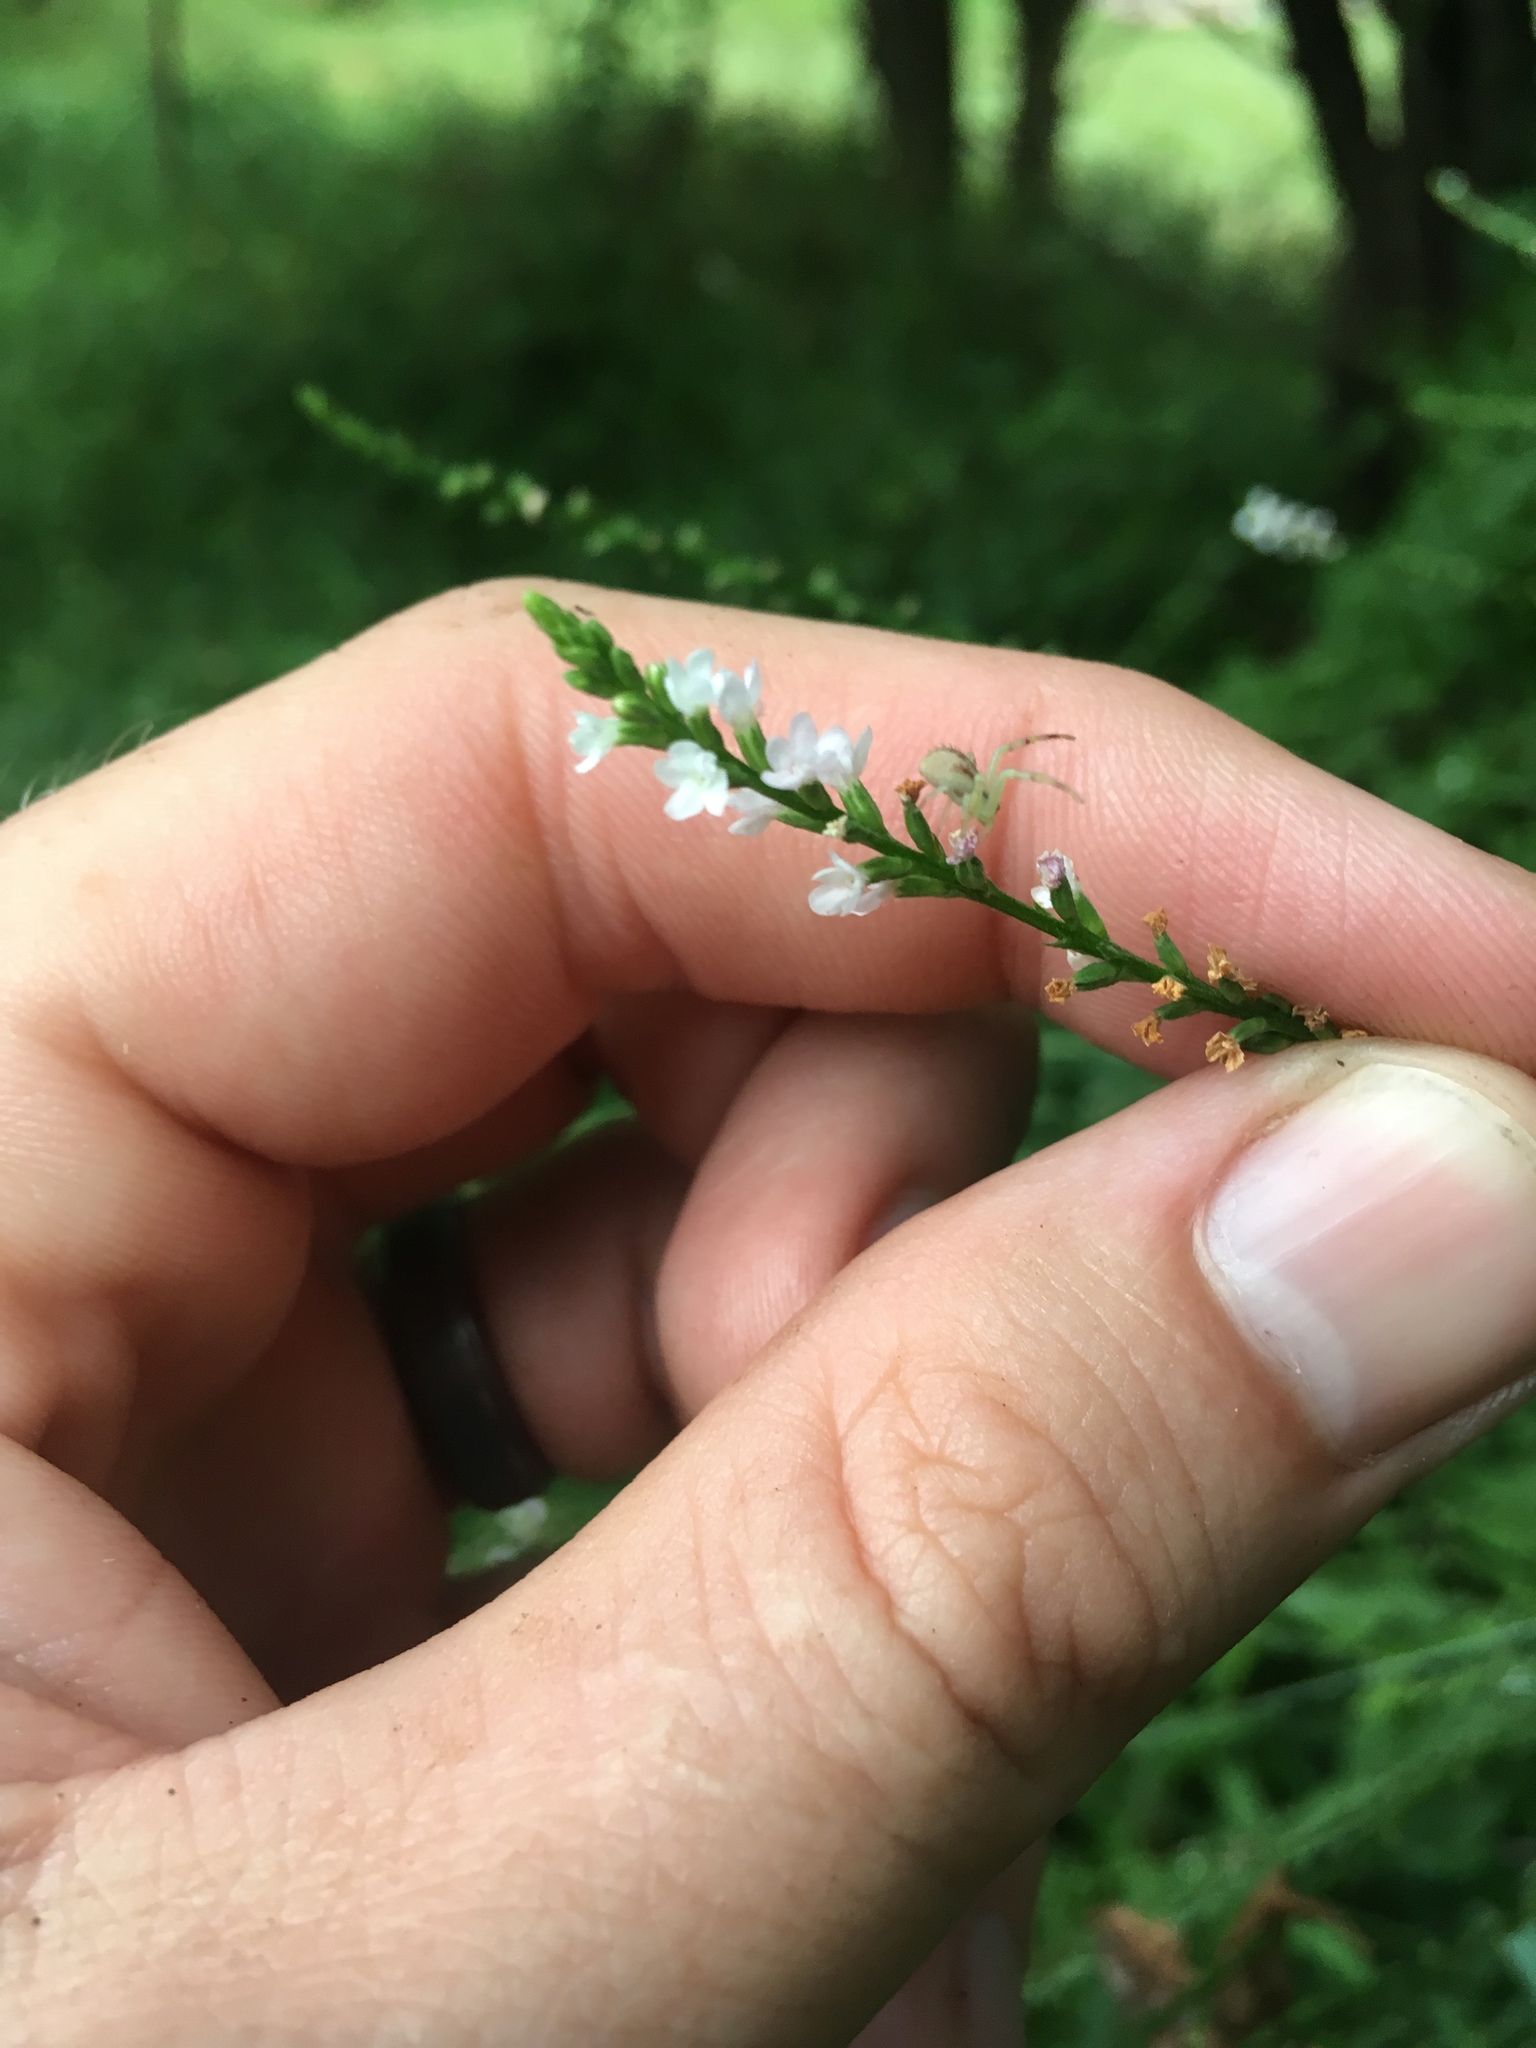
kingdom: Plantae
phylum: Tracheophyta
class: Magnoliopsida
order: Lamiales
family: Verbenaceae
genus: Verbena
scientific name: Verbena urticifolia
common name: Nettle-leaved vervain
